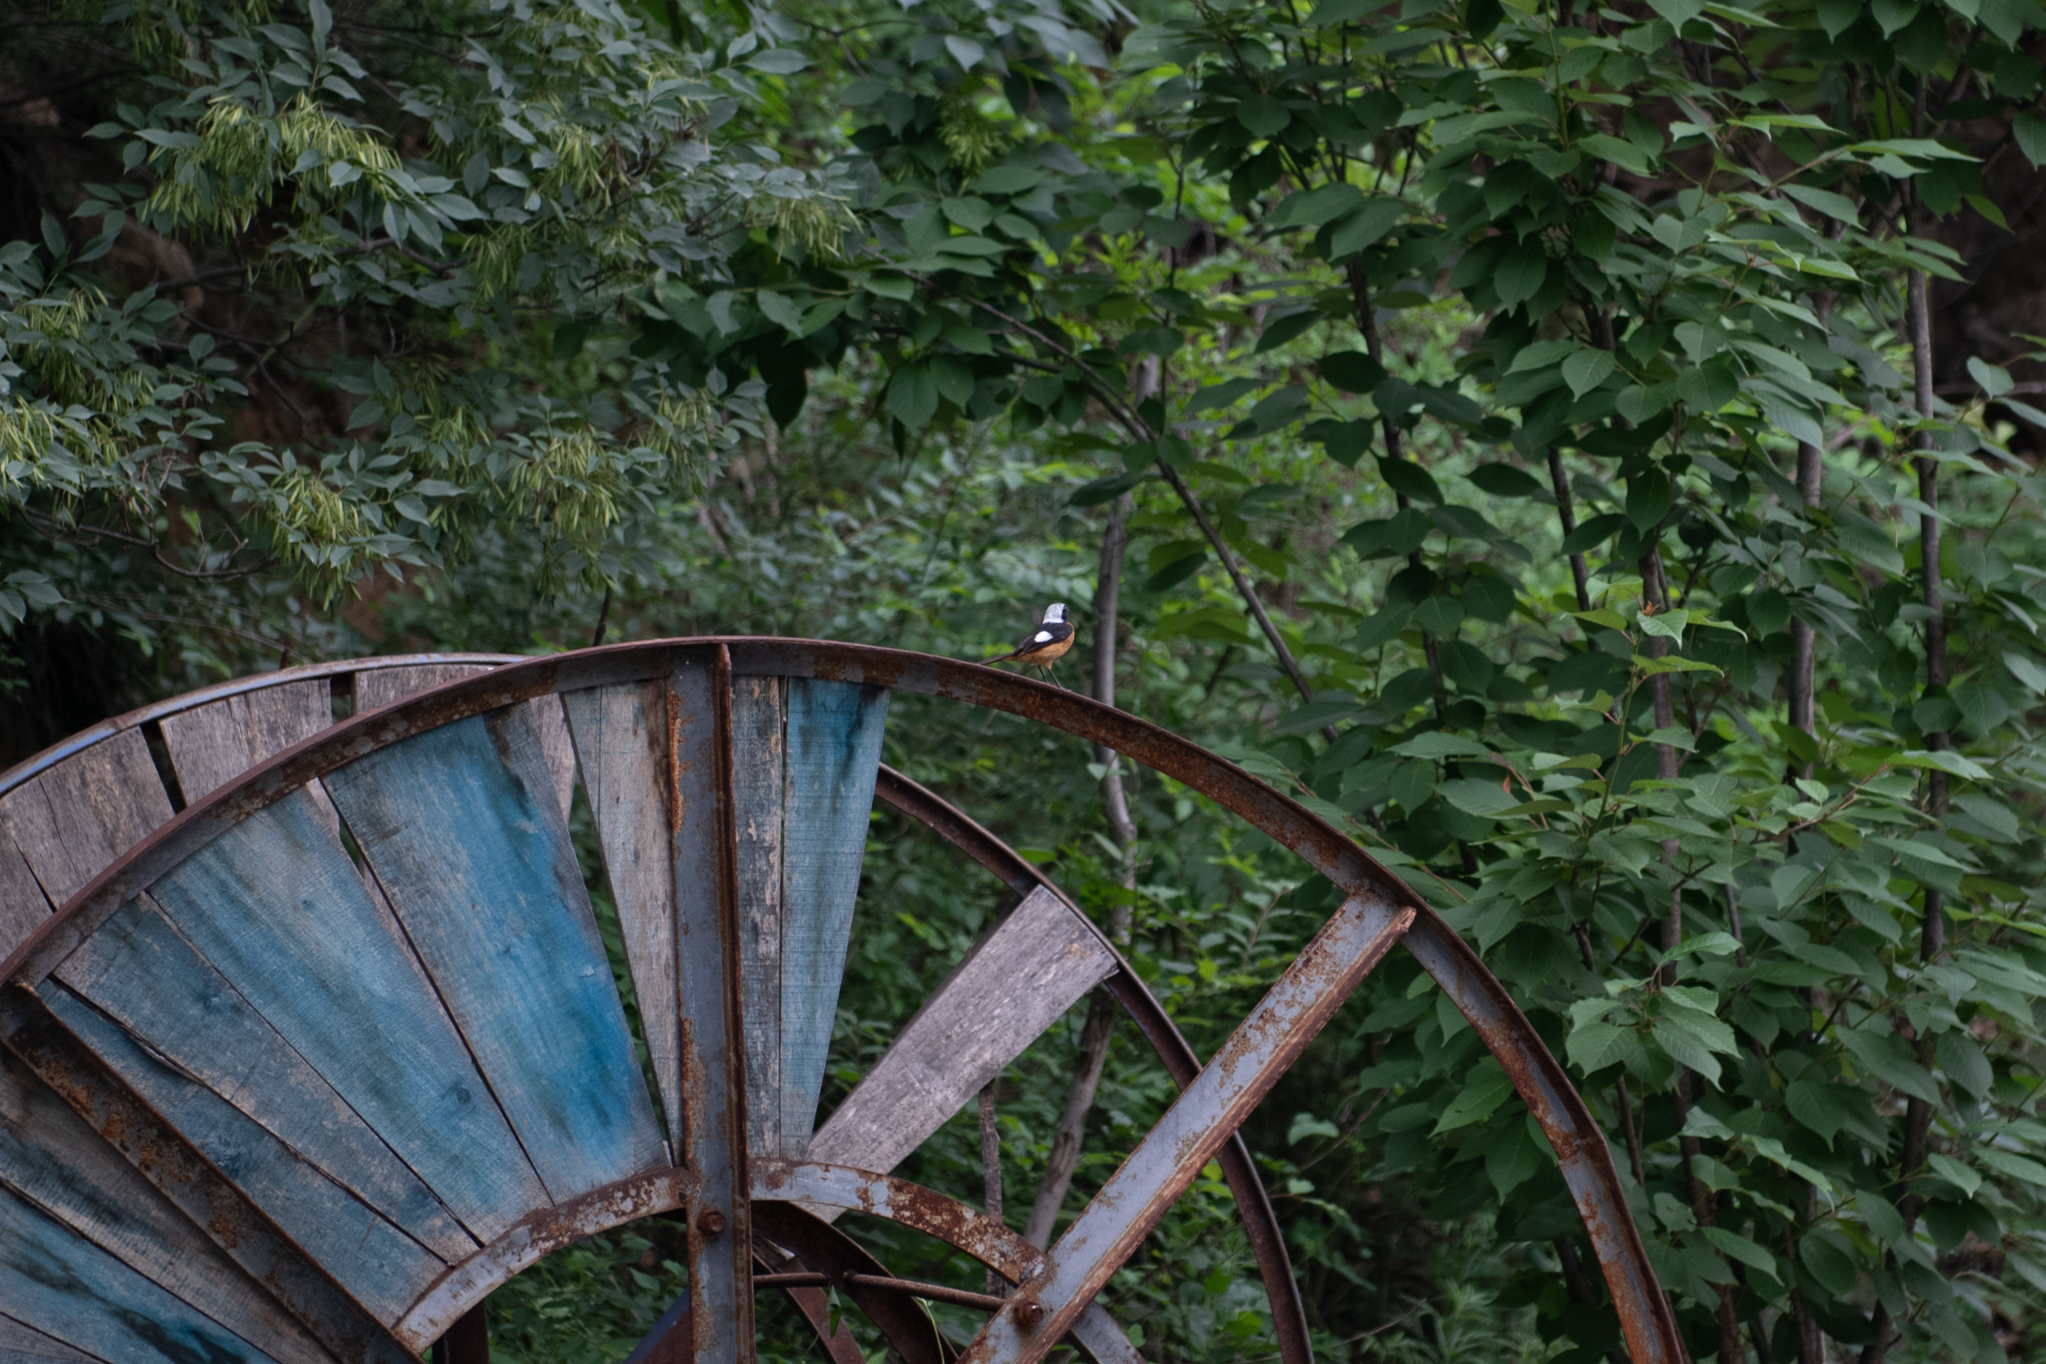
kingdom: Animalia
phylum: Chordata
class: Aves
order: Passeriformes
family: Muscicapidae
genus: Phoenicurus
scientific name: Phoenicurus auroreus
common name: Daurian redstart
